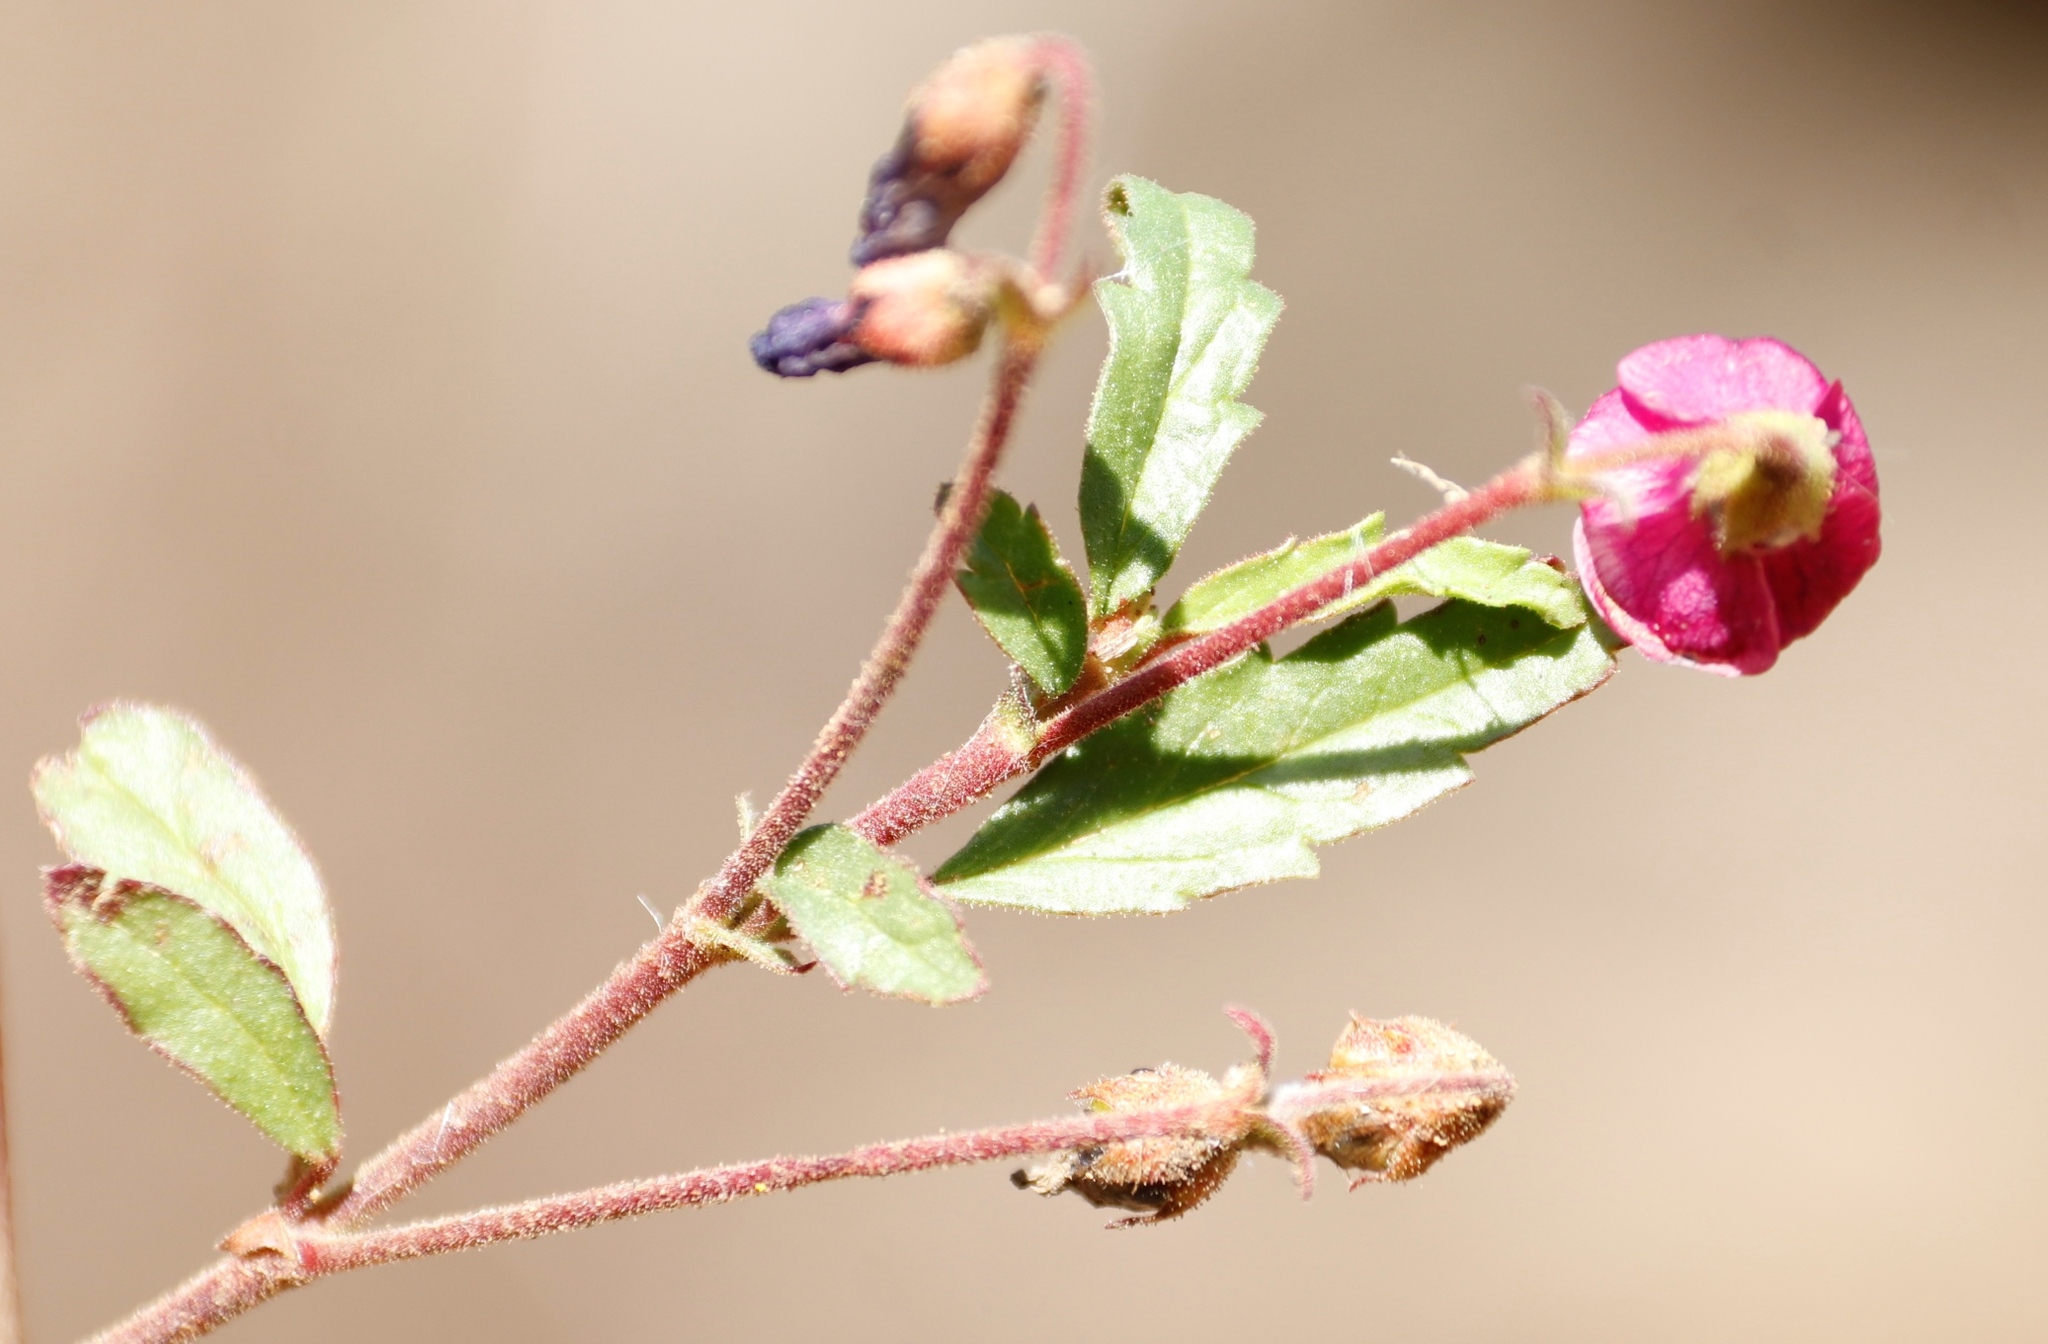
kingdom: Plantae
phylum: Tracheophyta
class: Magnoliopsida
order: Malvales
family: Malvaceae
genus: Hermannia
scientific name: Hermannia coccocarpa
